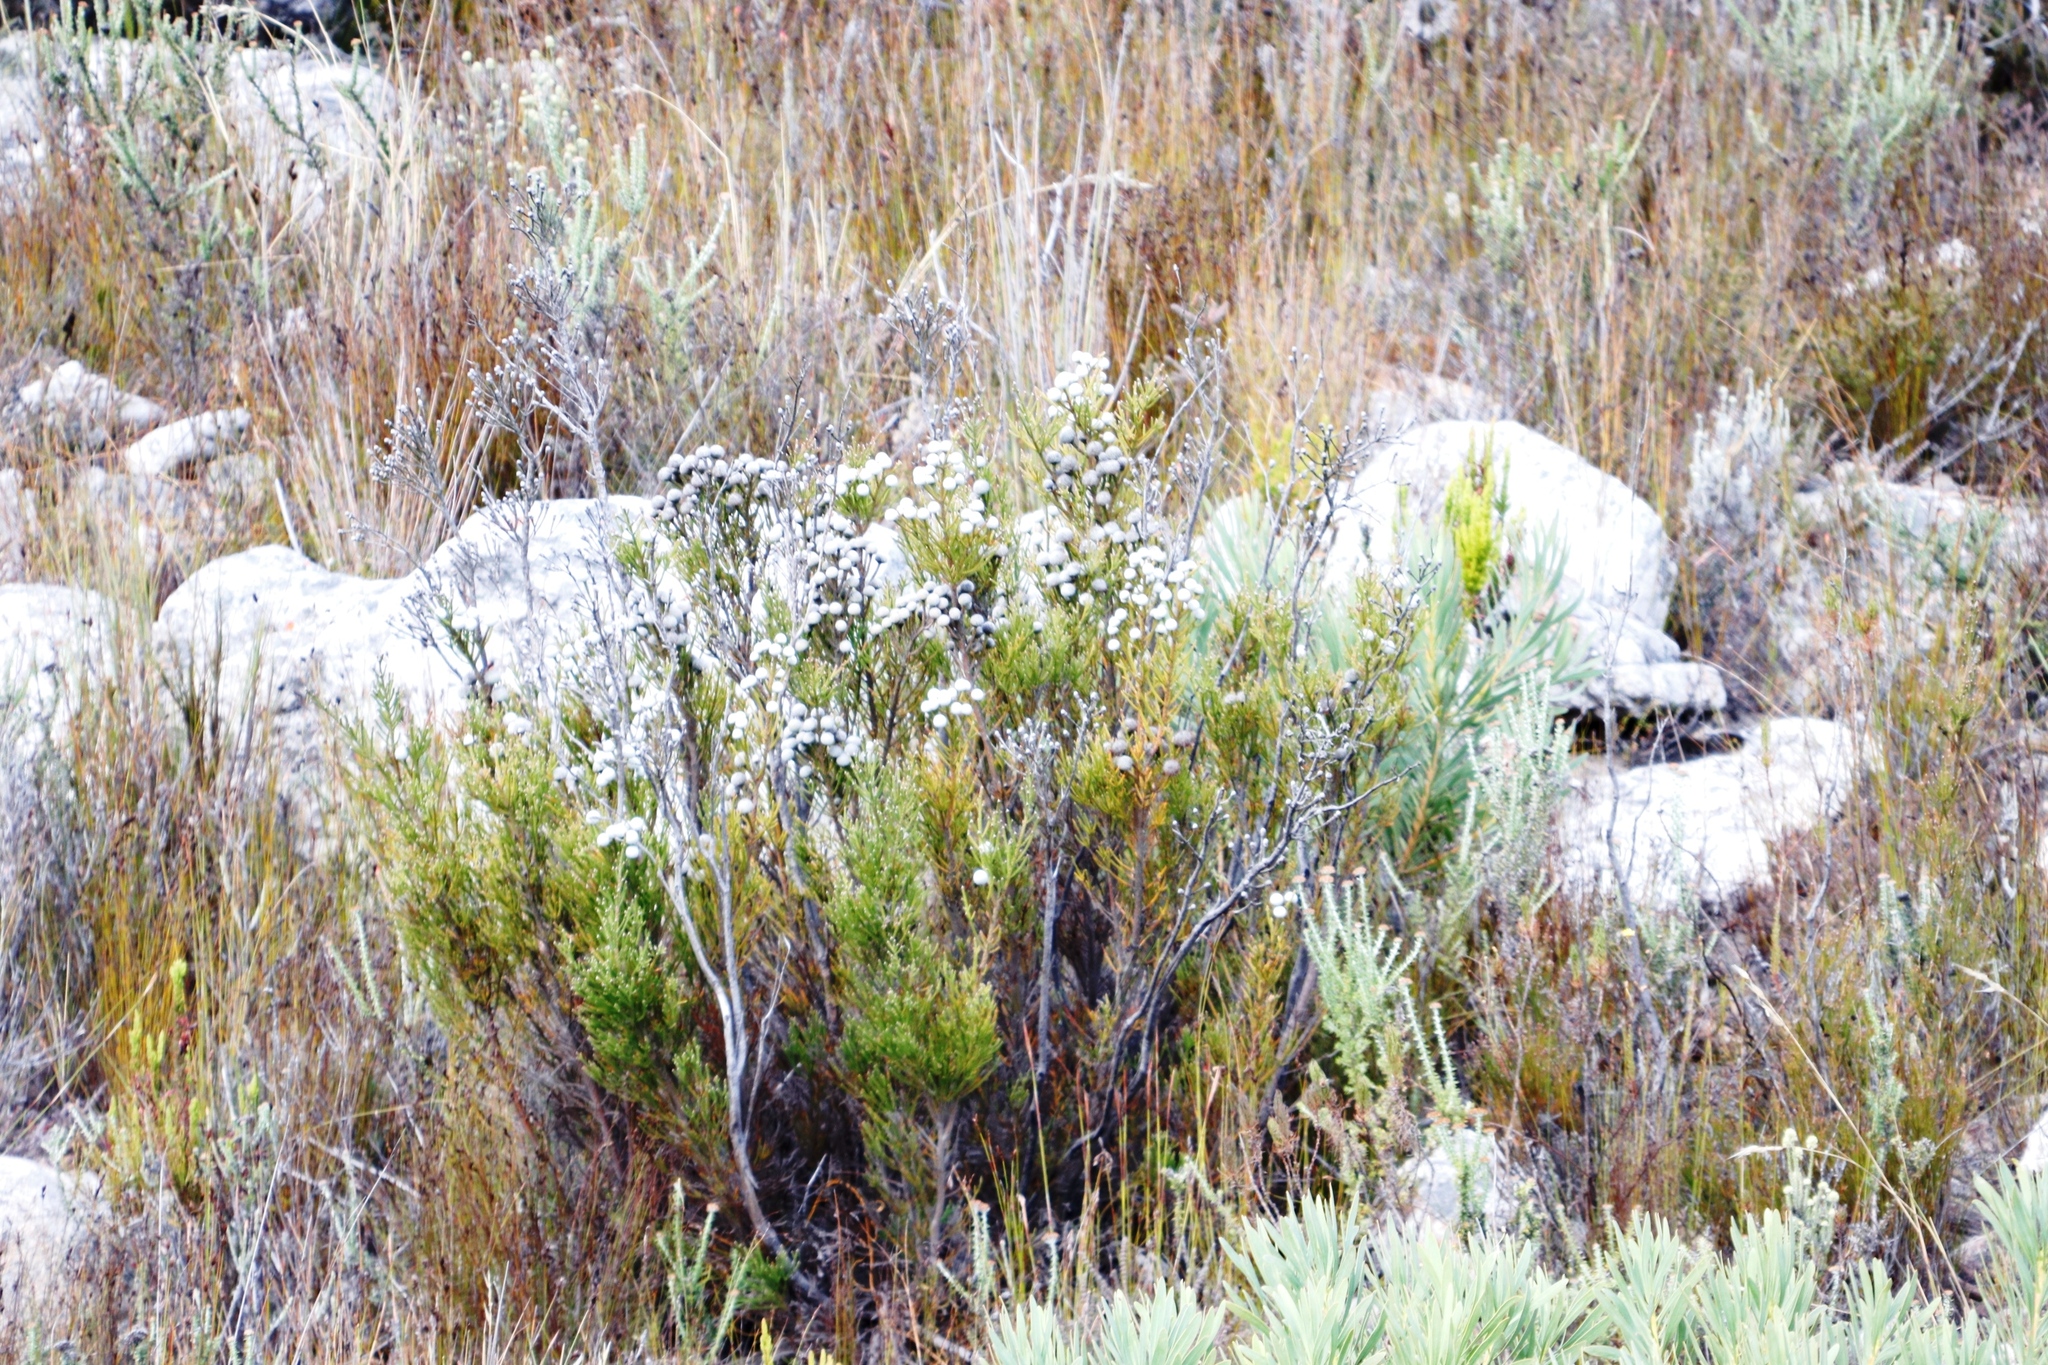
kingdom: Plantae
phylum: Tracheophyta
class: Magnoliopsida
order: Bruniales
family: Bruniaceae
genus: Brunia
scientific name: Brunia noduliflora
